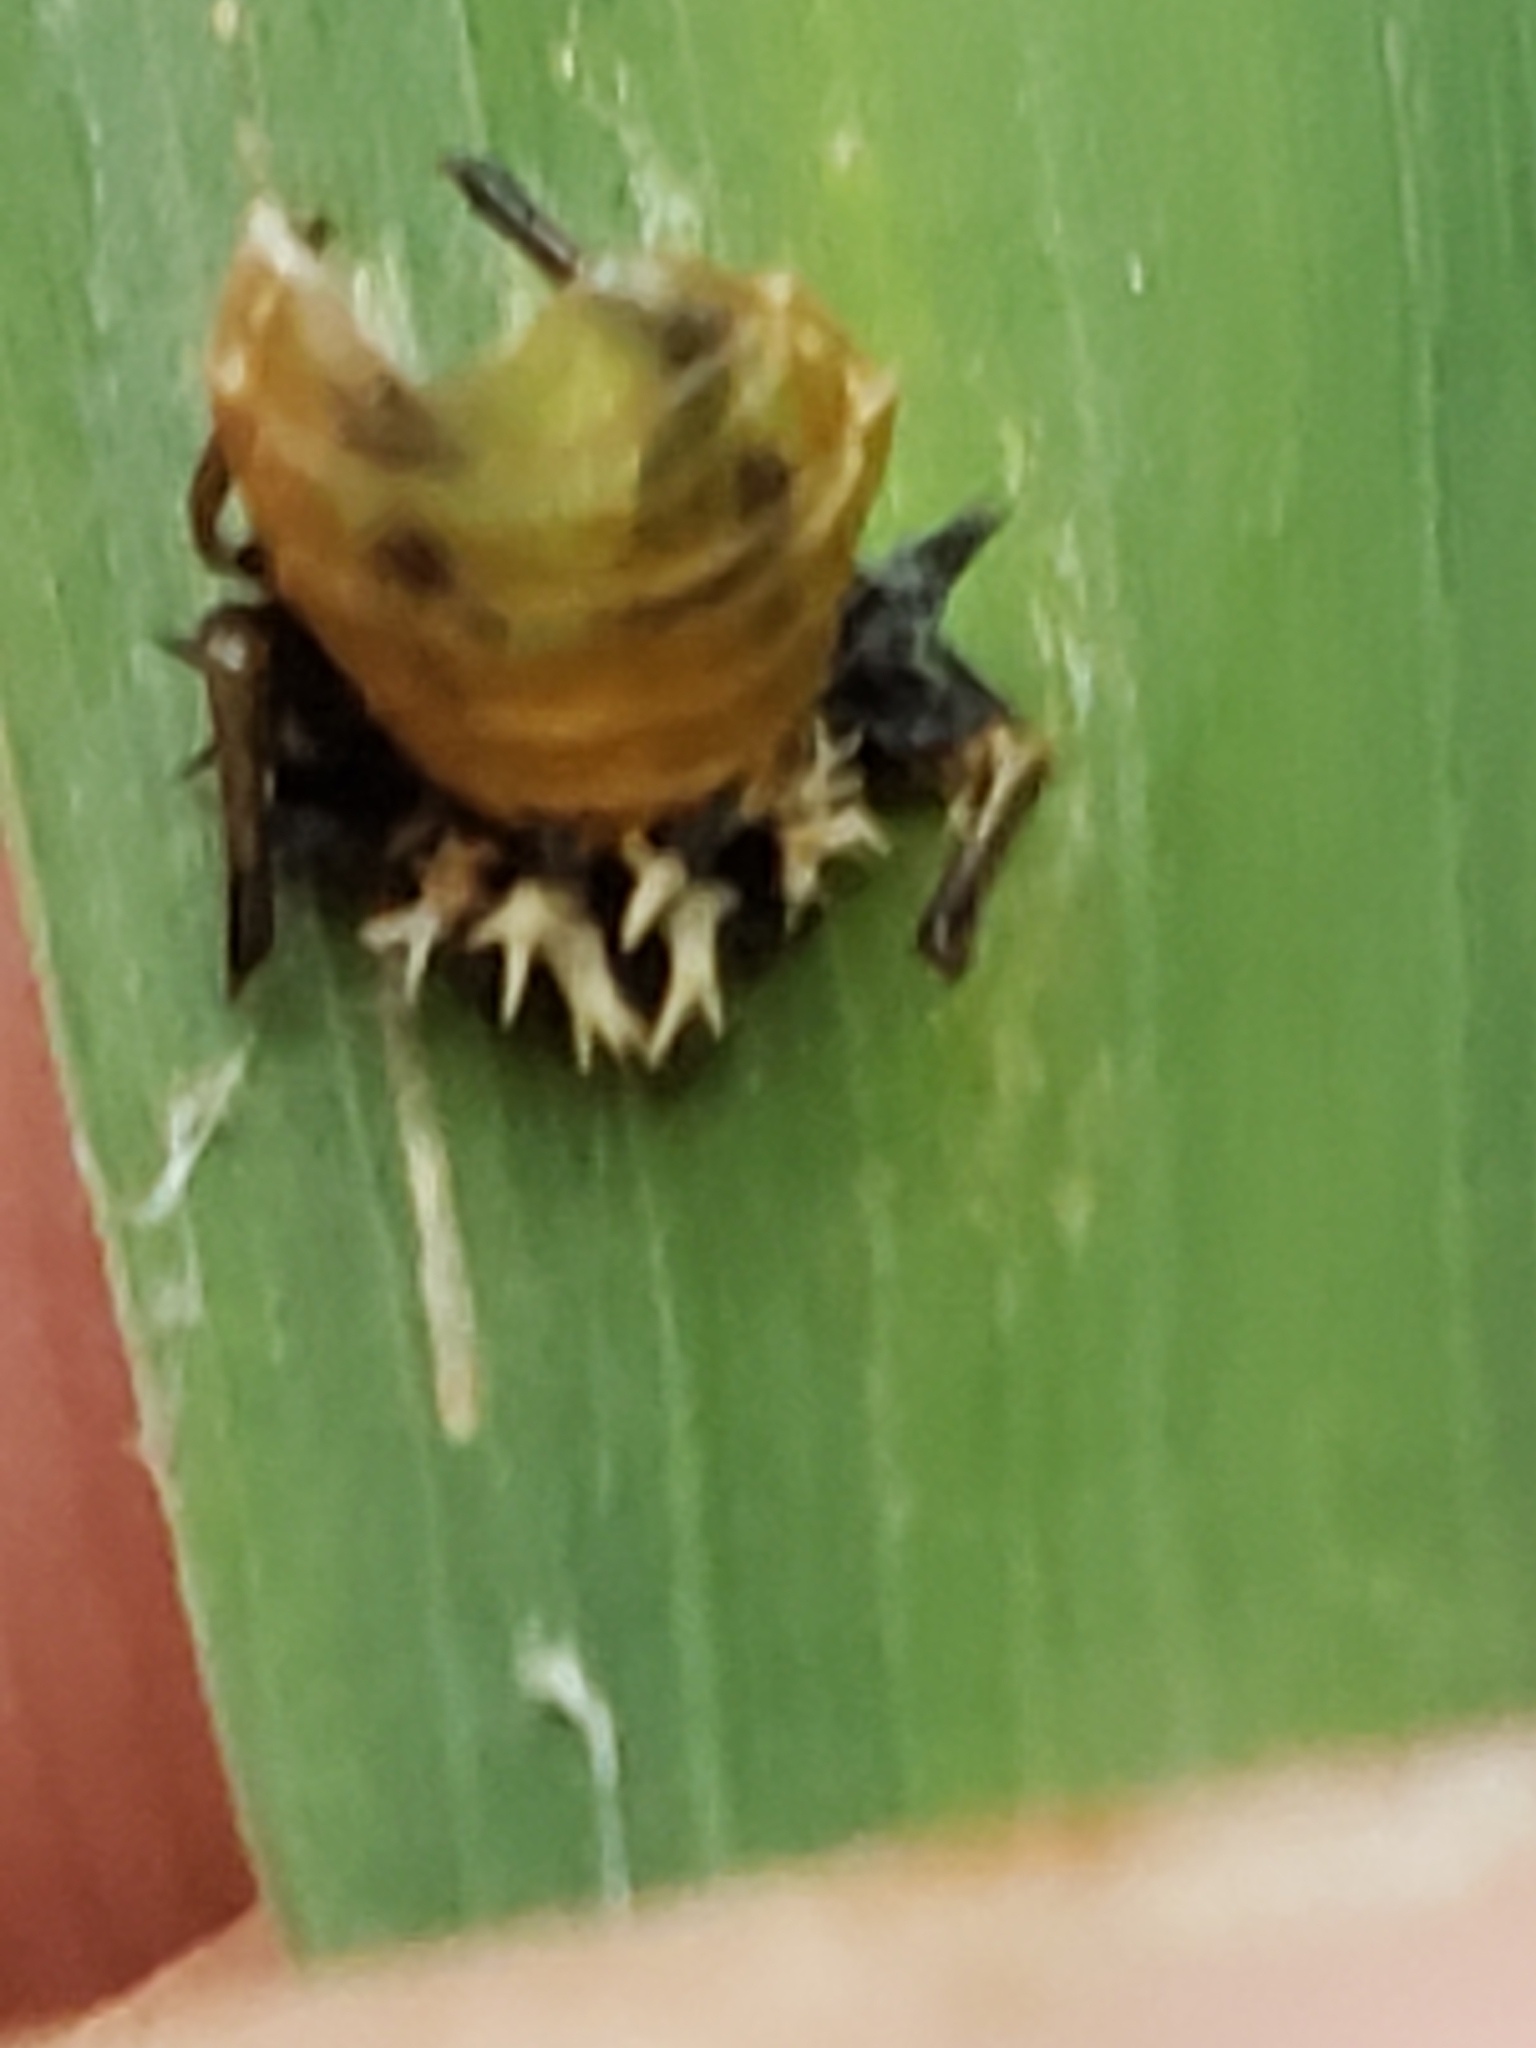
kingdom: Animalia
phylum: Arthropoda
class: Insecta
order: Coleoptera
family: Coccinellidae
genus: Harmonia
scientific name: Harmonia axyridis
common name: Harlequin ladybird
